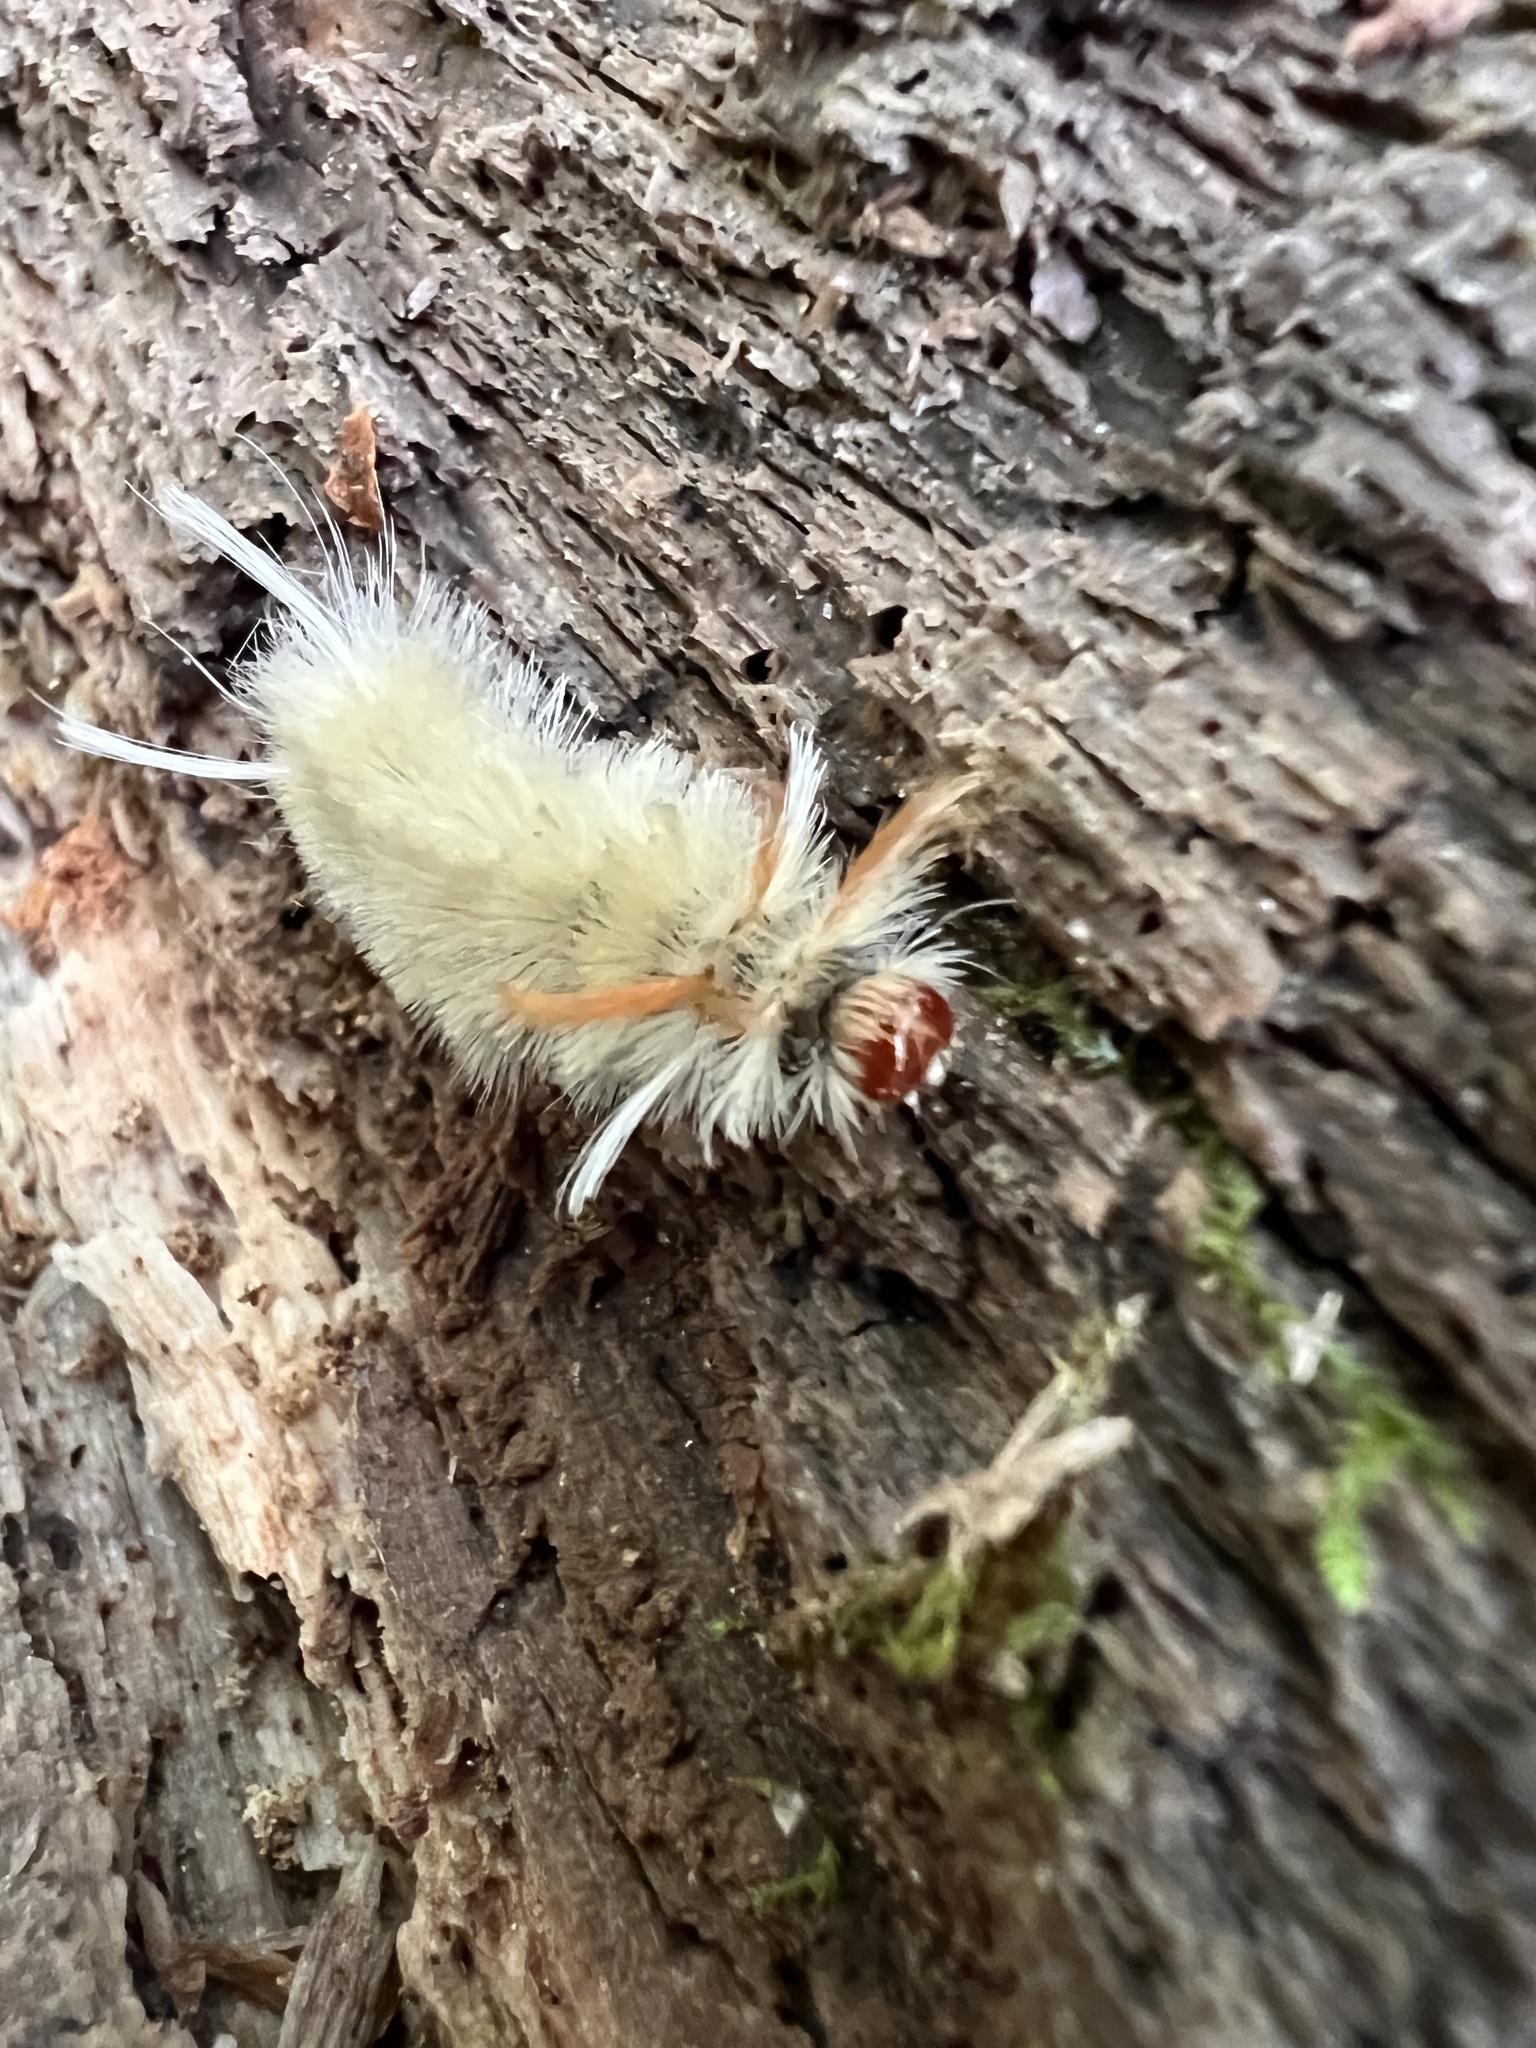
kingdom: Animalia
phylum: Arthropoda
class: Insecta
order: Lepidoptera
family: Erebidae
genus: Halysidota
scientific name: Halysidota harrisii
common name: Sycamore tussock moth
